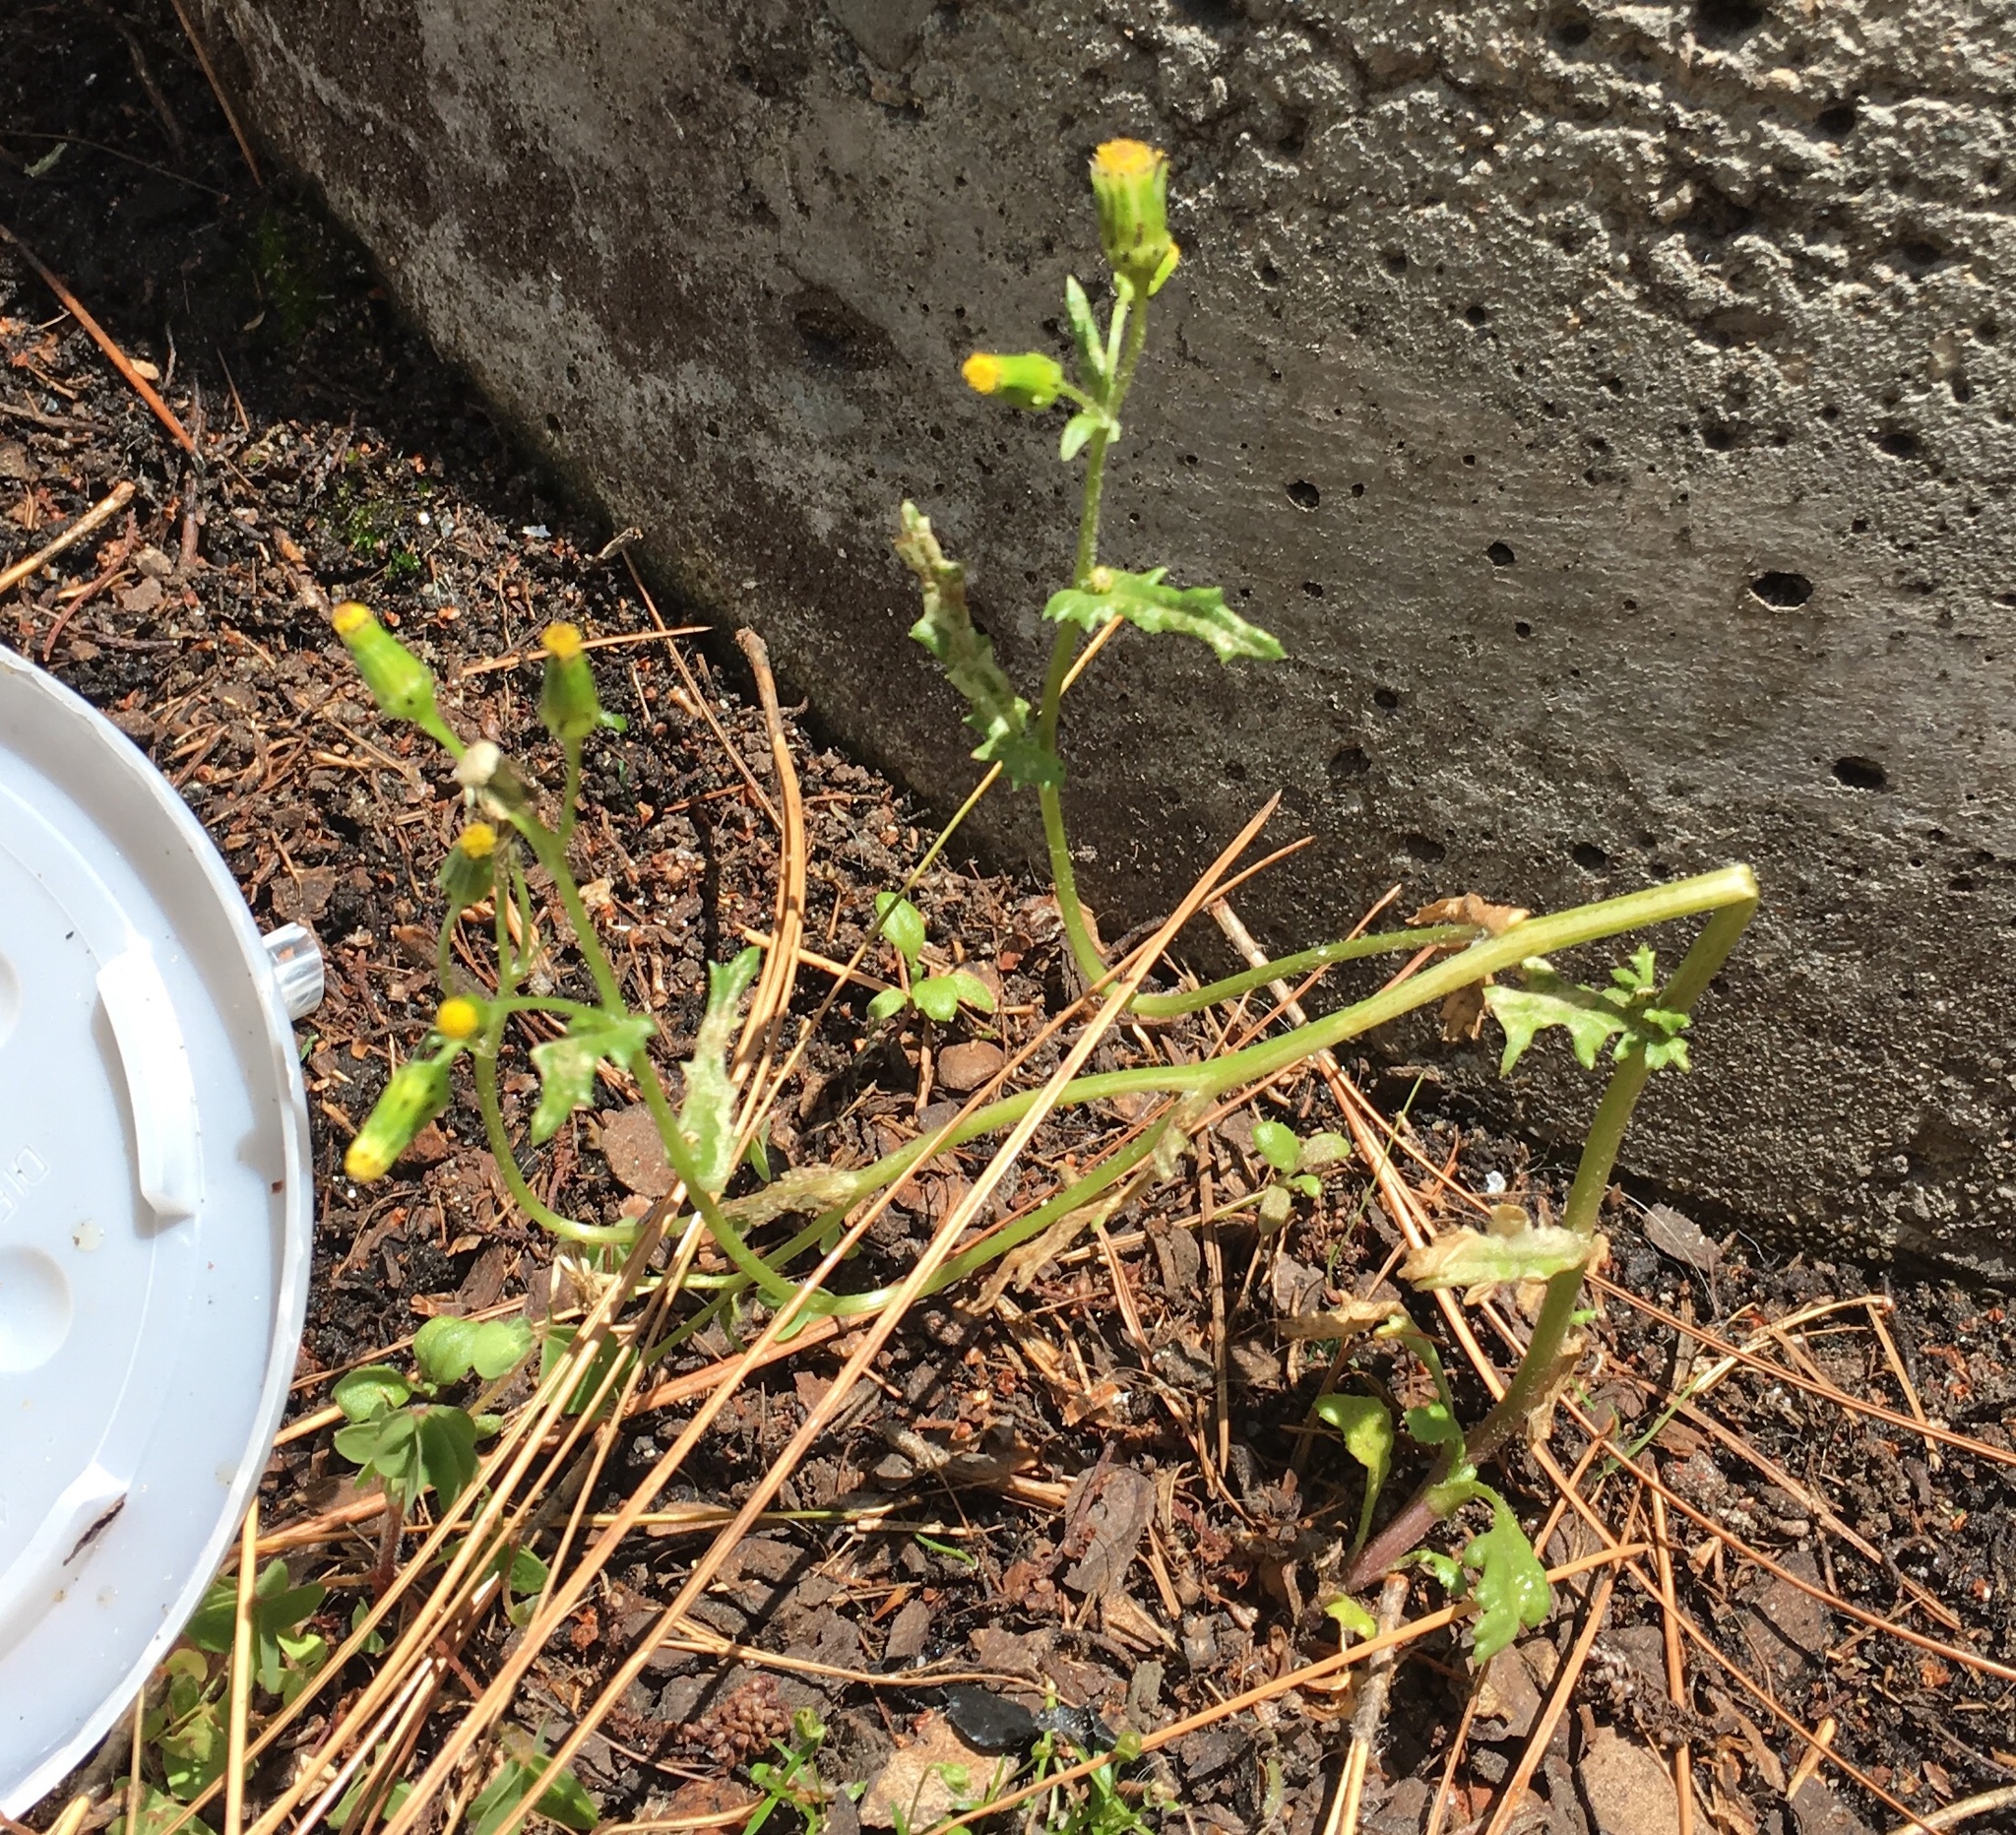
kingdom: Plantae
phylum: Tracheophyta
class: Magnoliopsida
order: Asterales
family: Asteraceae
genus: Senecio
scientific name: Senecio vulgaris
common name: Old-man-in-the-spring
